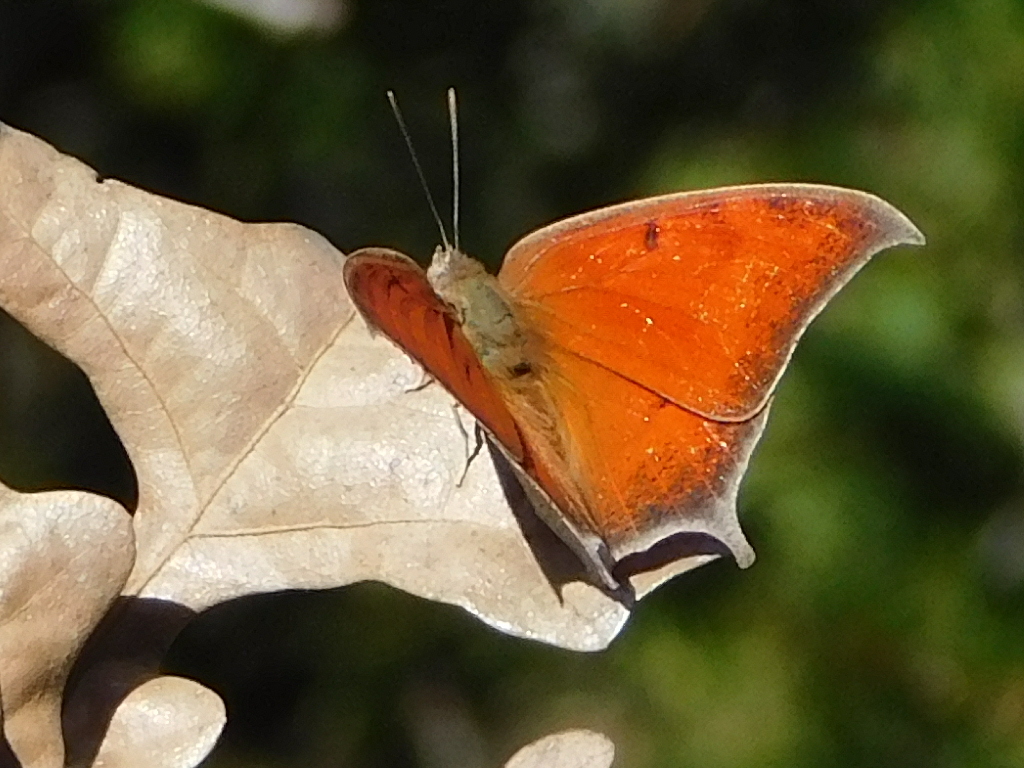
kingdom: Animalia
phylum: Arthropoda
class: Insecta
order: Lepidoptera
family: Nymphalidae
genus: Anaea
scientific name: Anaea andria
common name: Goatweed leafwing
